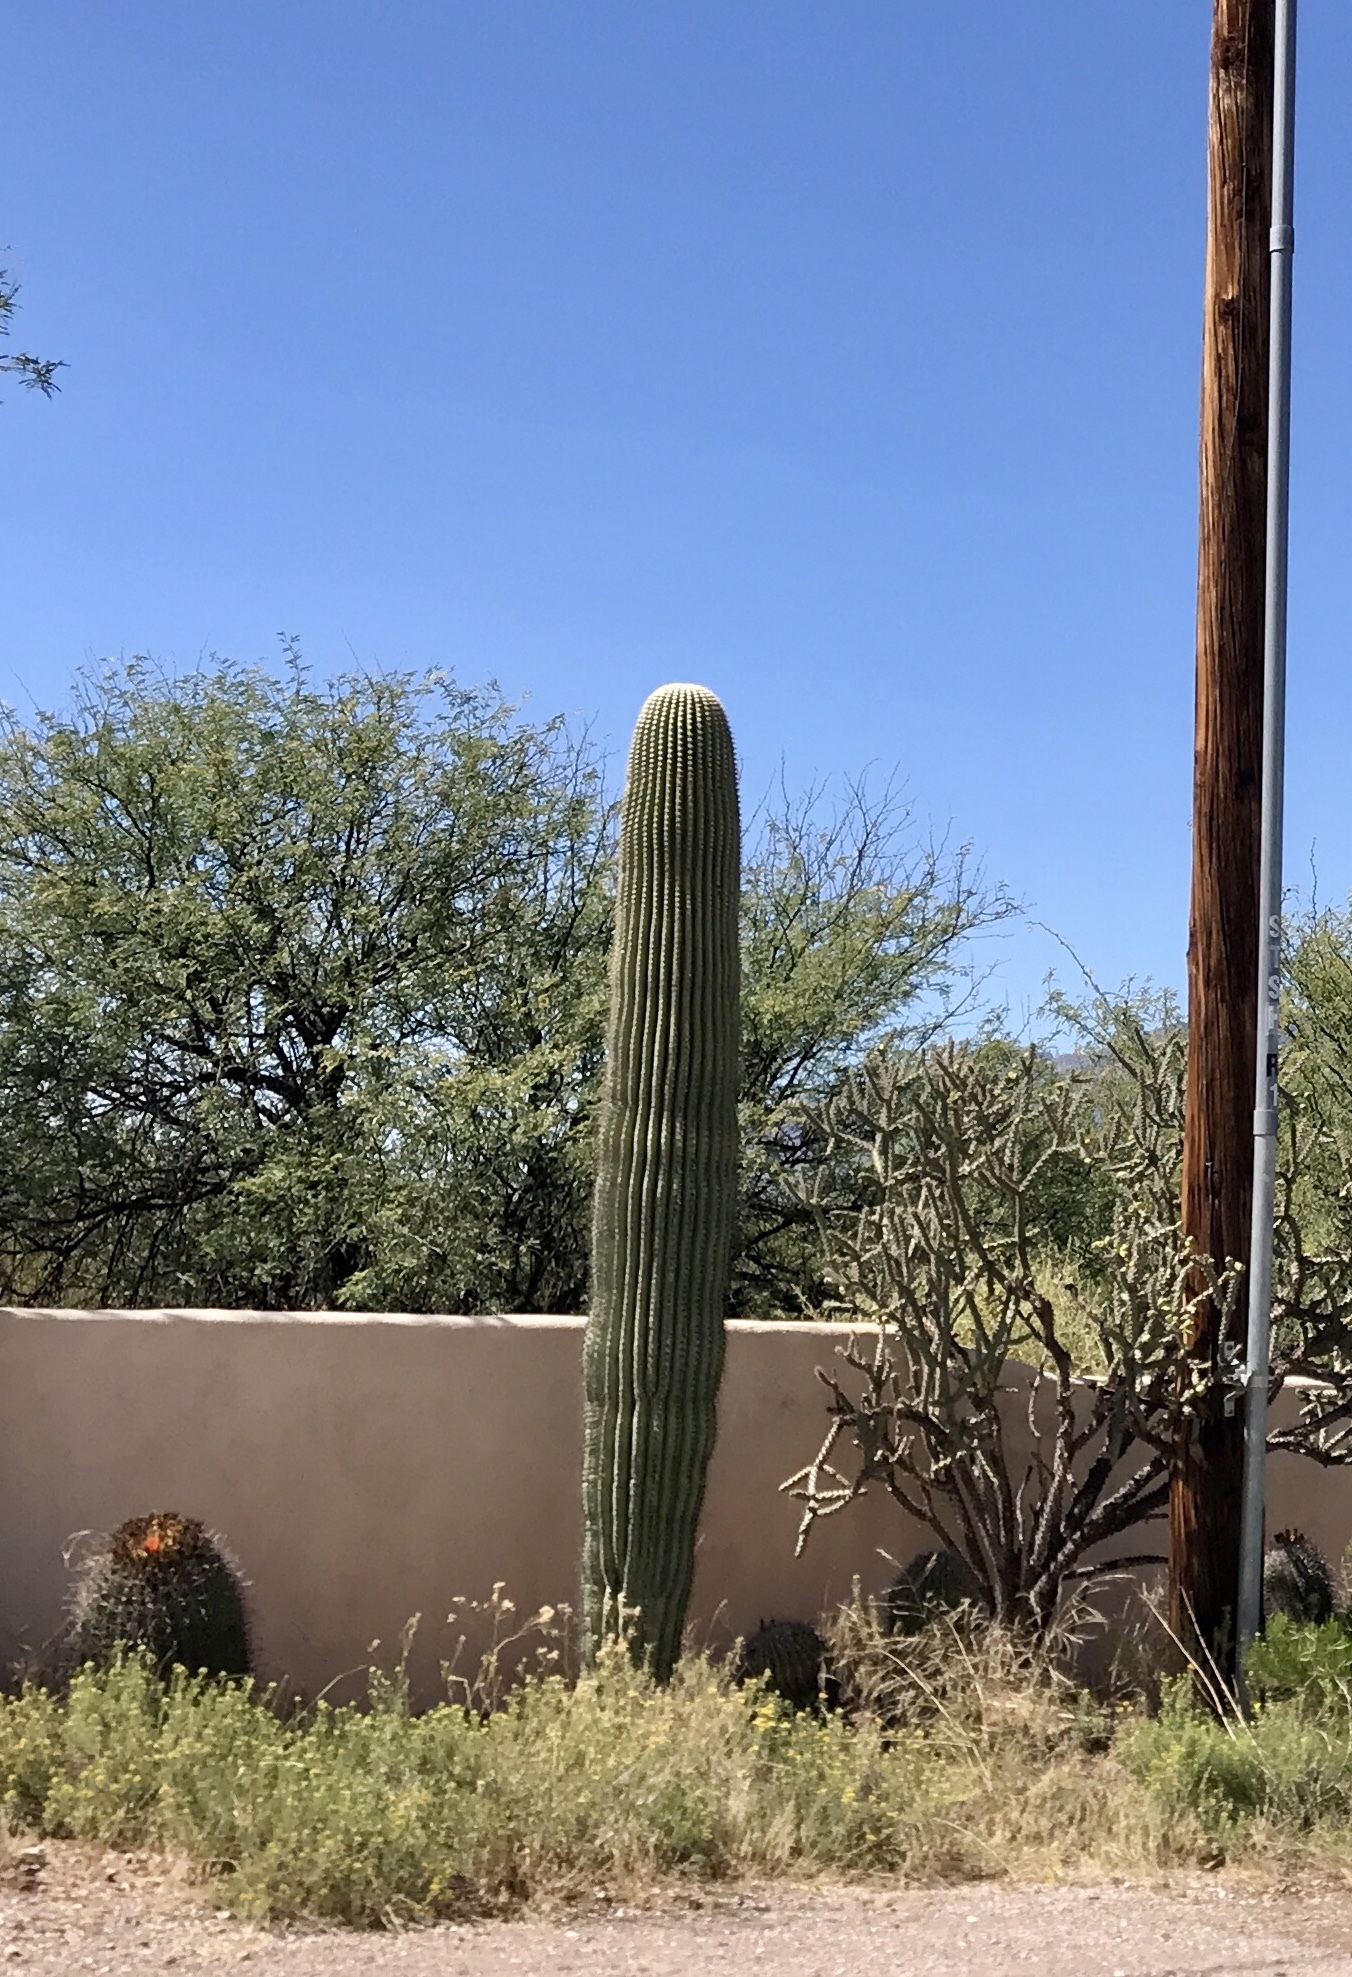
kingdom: Plantae
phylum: Tracheophyta
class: Magnoliopsida
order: Caryophyllales
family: Cactaceae
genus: Carnegiea
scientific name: Carnegiea gigantea
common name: Saguaro
